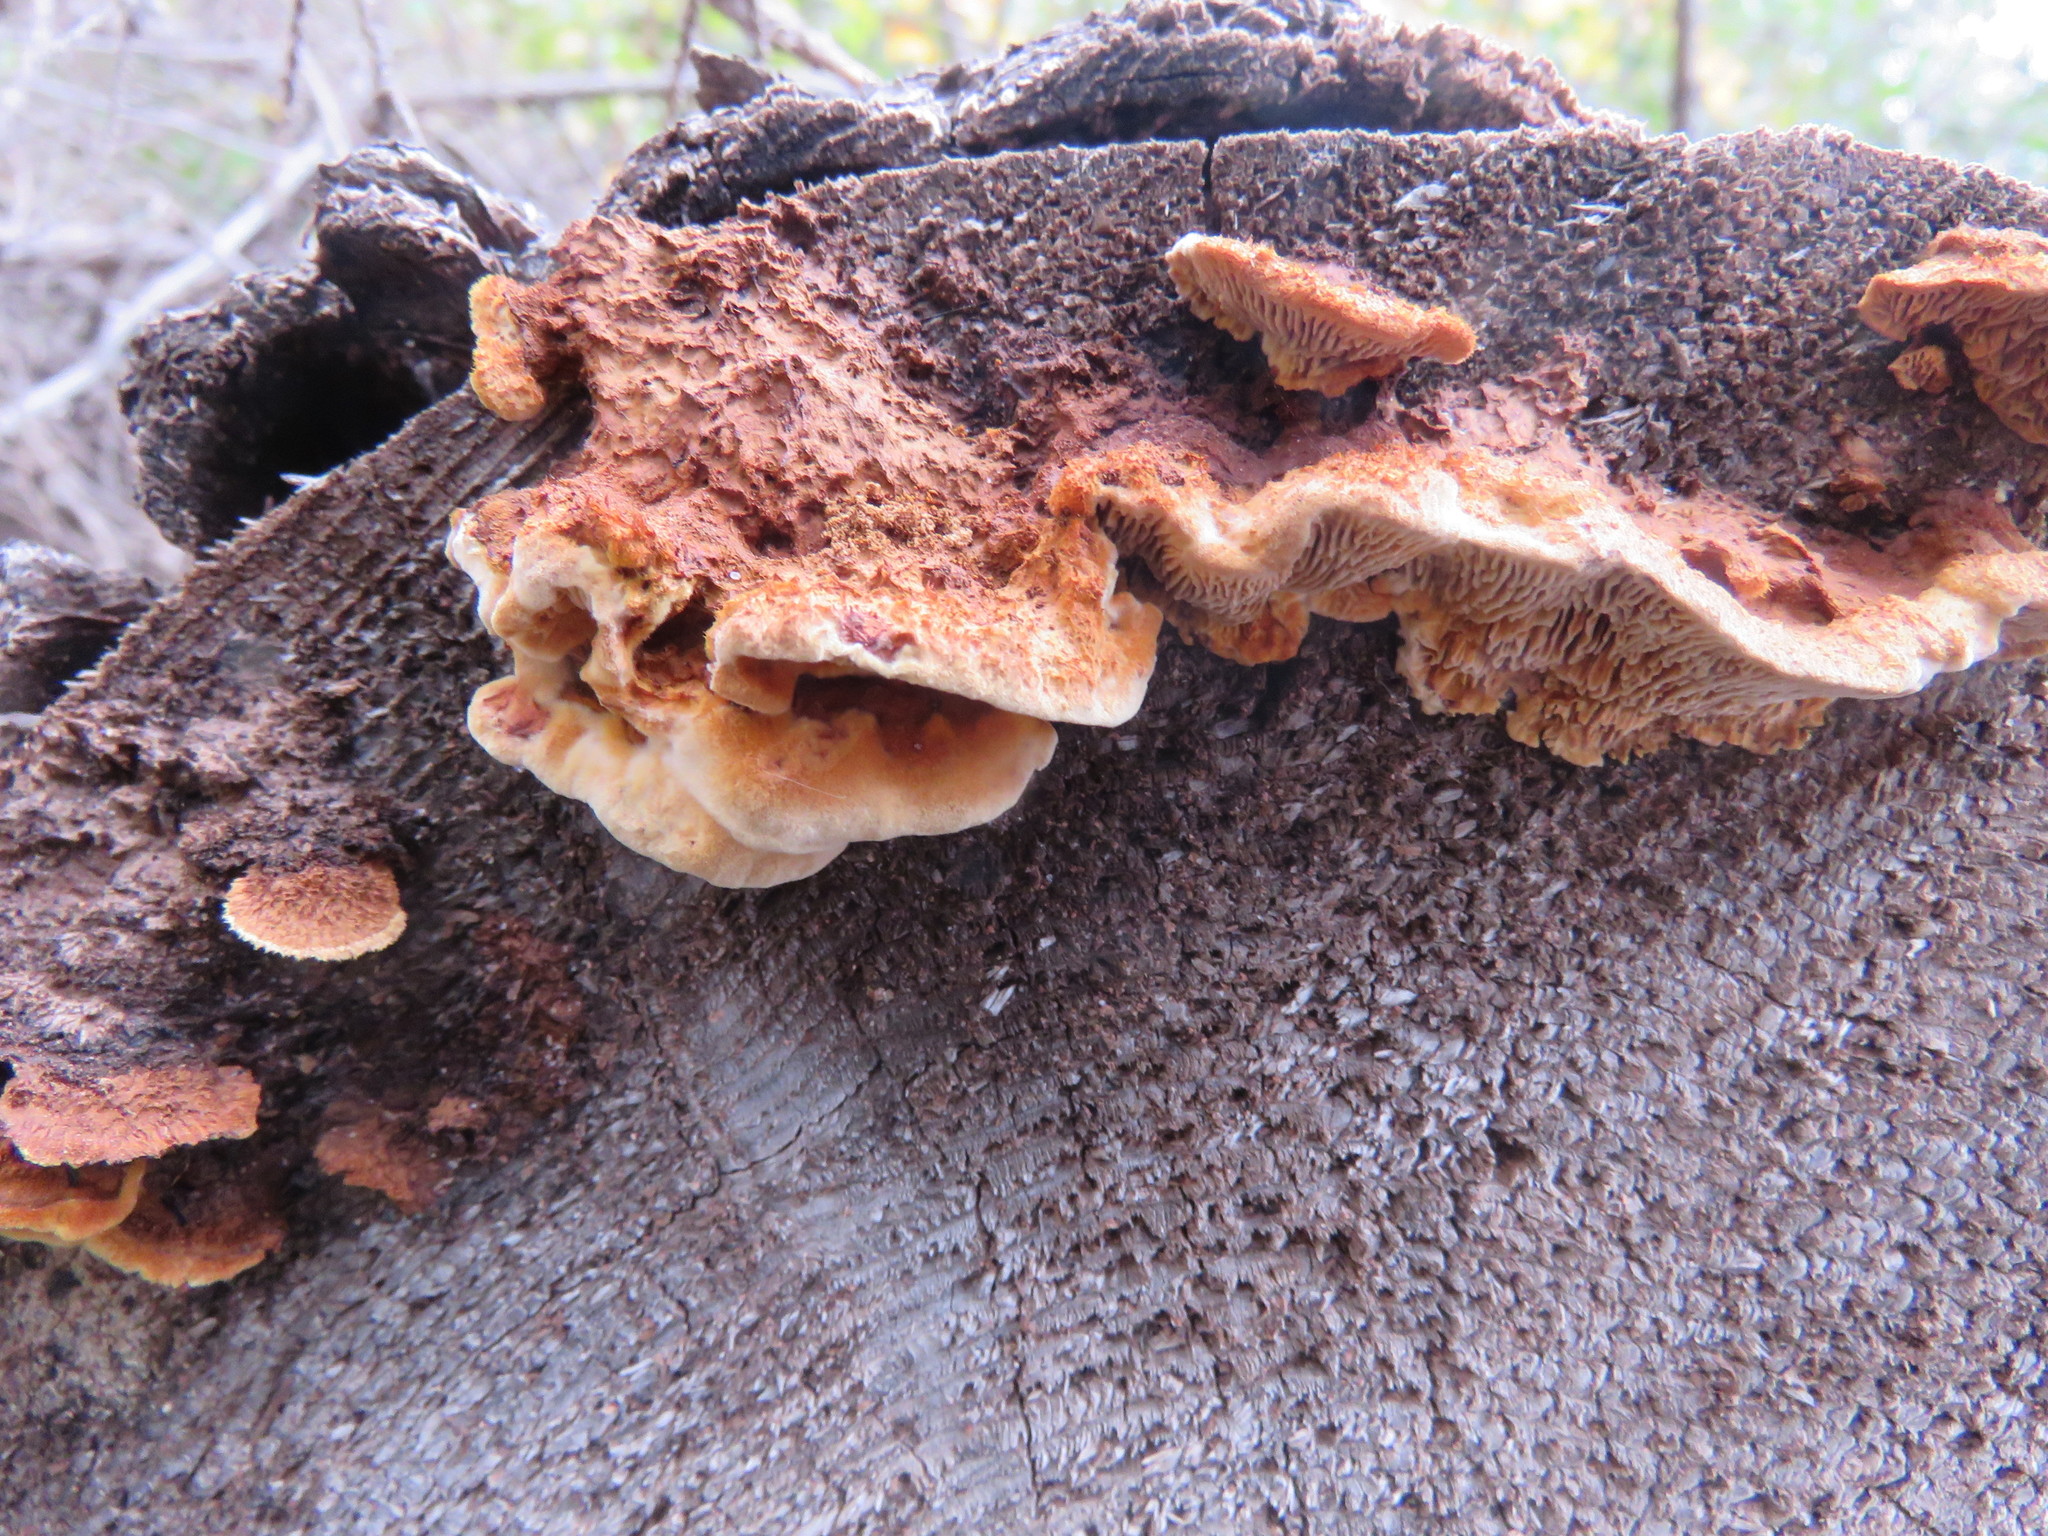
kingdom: Fungi
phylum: Basidiomycota
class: Agaricomycetes
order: Gloeophyllales
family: Gloeophyllaceae
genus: Gloeophyllum
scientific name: Gloeophyllum sepiarium
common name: Conifer mazegill
